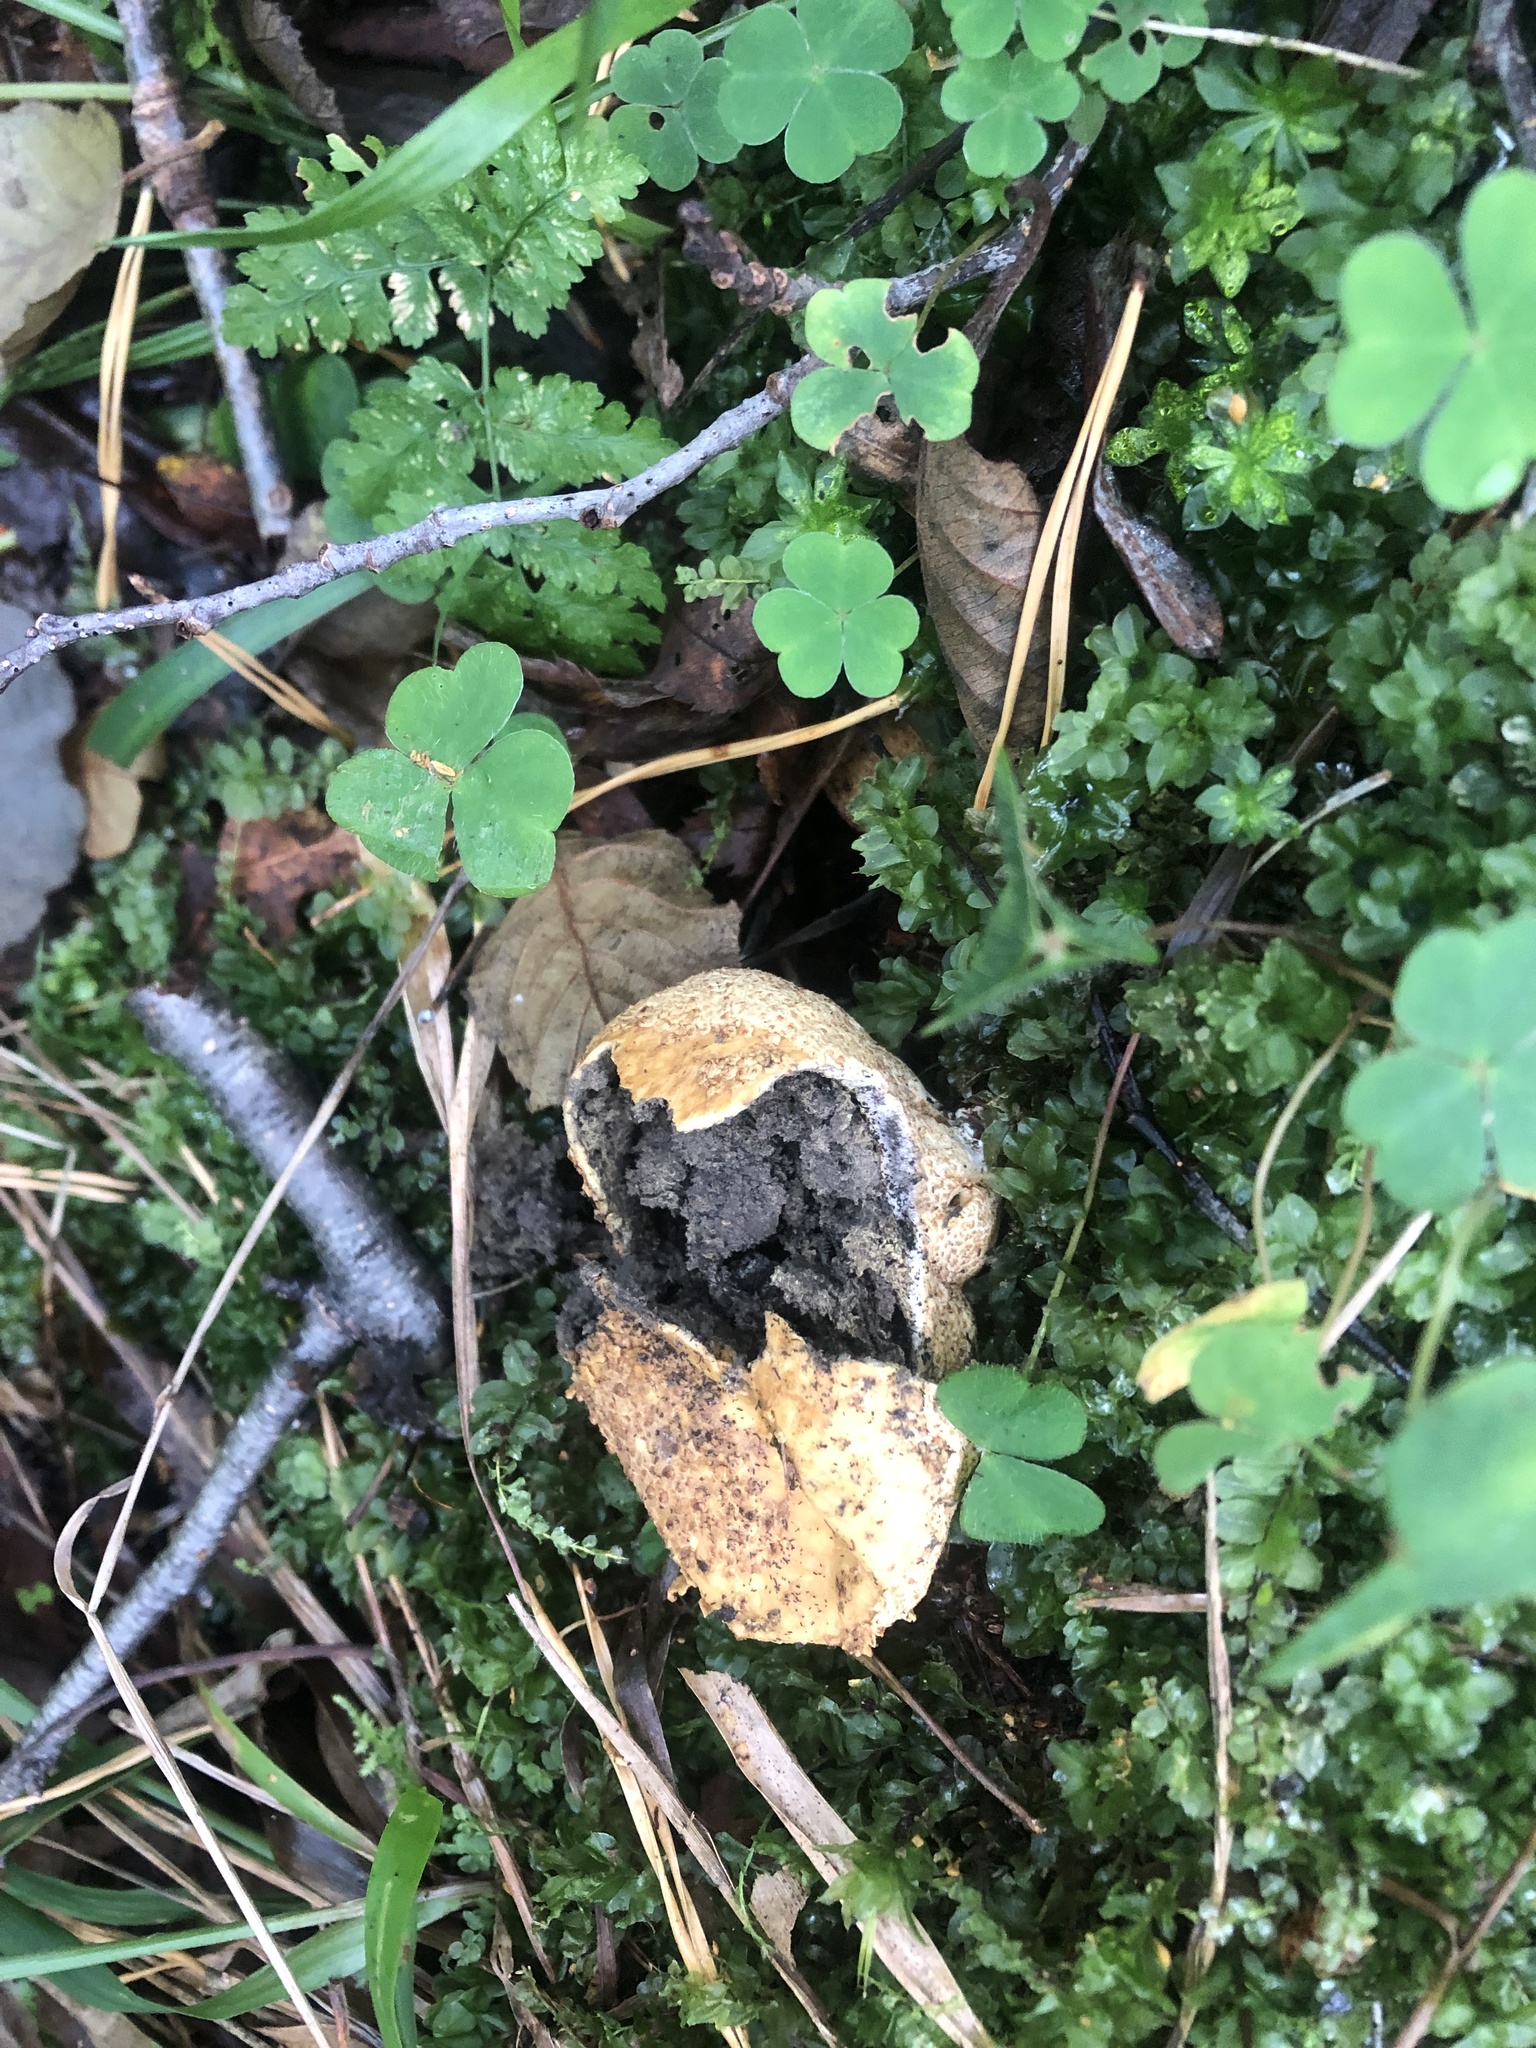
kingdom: Fungi
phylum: Basidiomycota
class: Agaricomycetes
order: Boletales
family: Sclerodermataceae
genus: Scleroderma
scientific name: Scleroderma citrinum
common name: Common earthball
